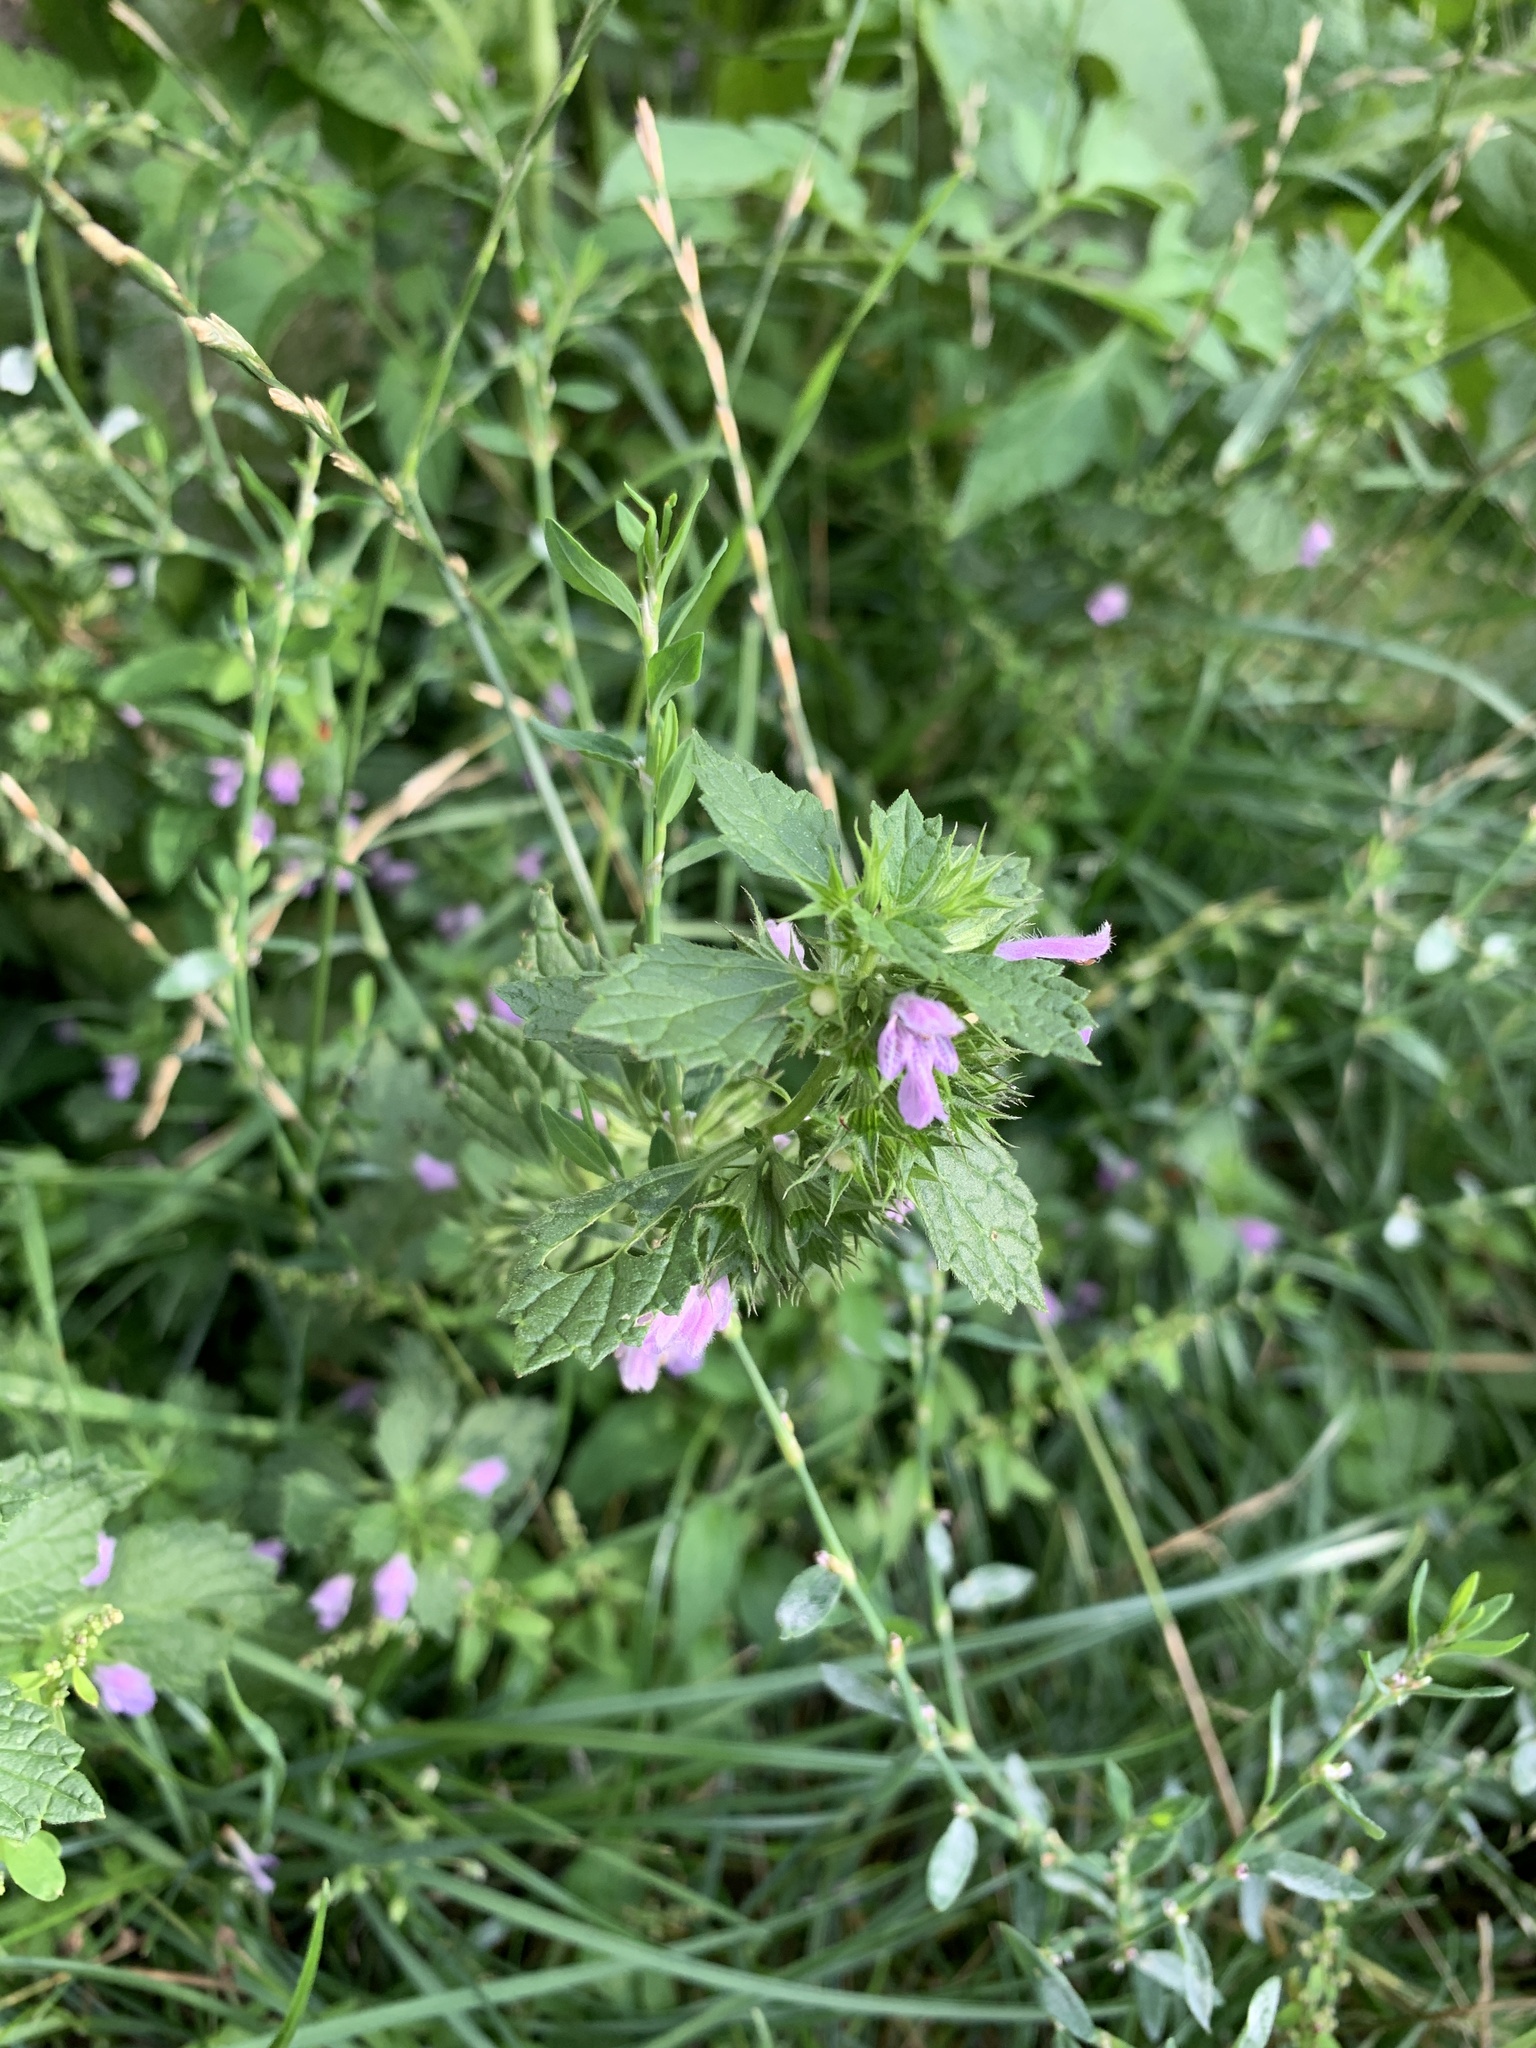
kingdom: Plantae
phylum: Tracheophyta
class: Magnoliopsida
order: Lamiales
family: Lamiaceae
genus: Ballota
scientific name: Ballota nigra
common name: Black horehound
